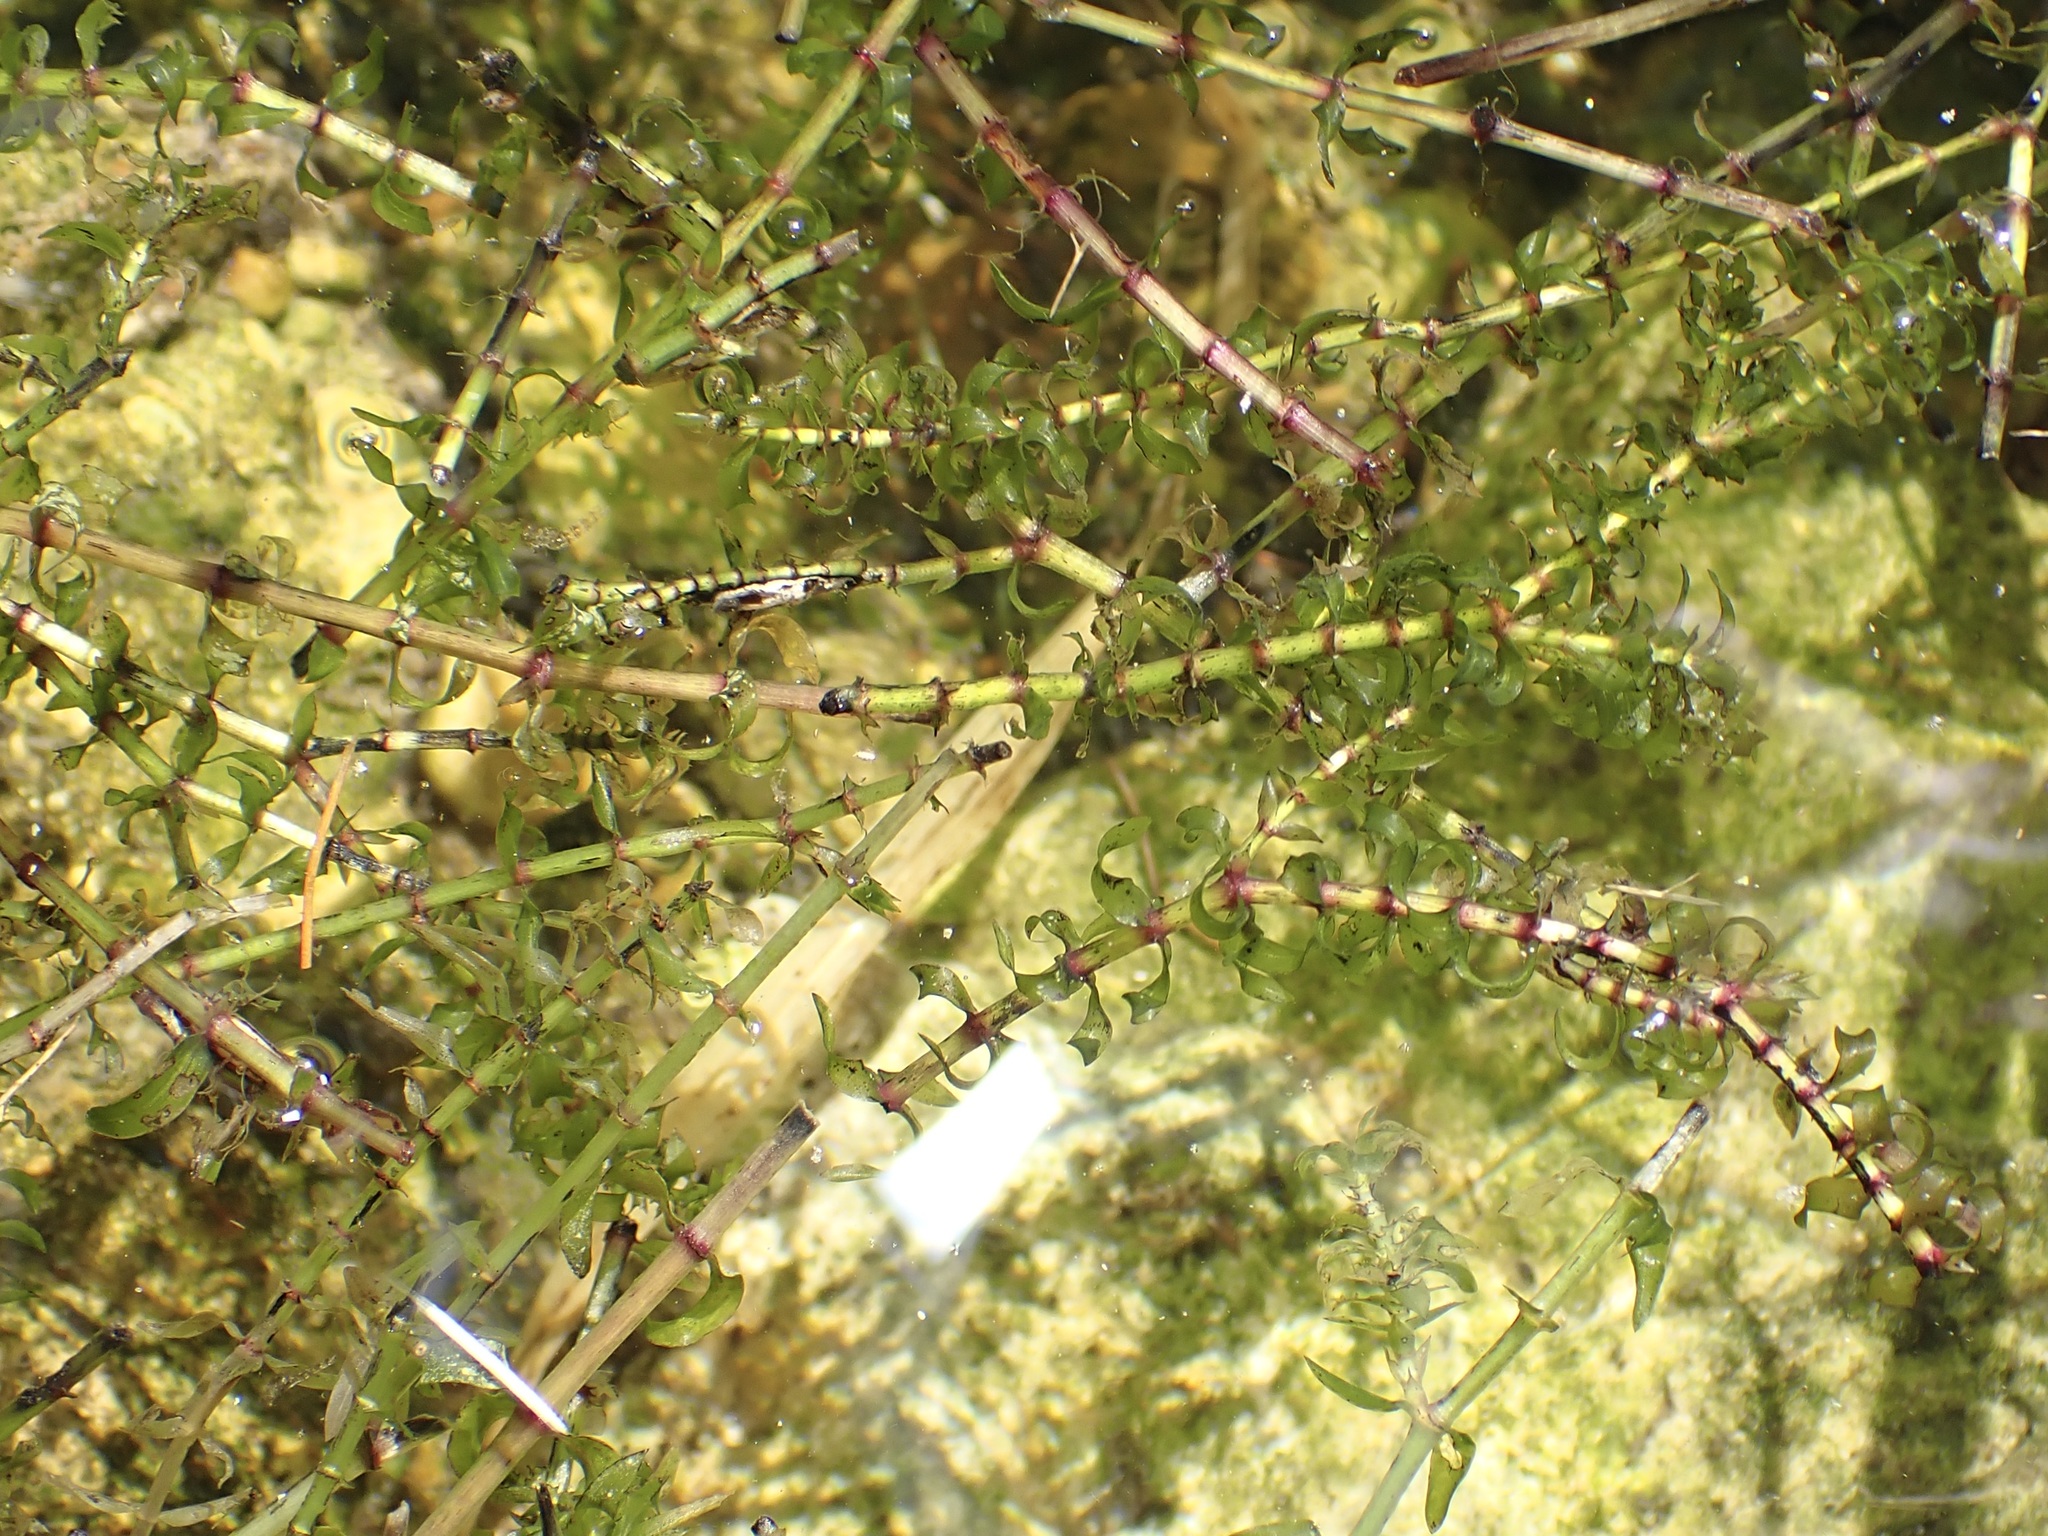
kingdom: Plantae
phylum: Tracheophyta
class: Liliopsida
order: Alismatales
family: Hydrocharitaceae
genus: Elodea
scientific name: Elodea nuttallii
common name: Nuttall's waterweed
